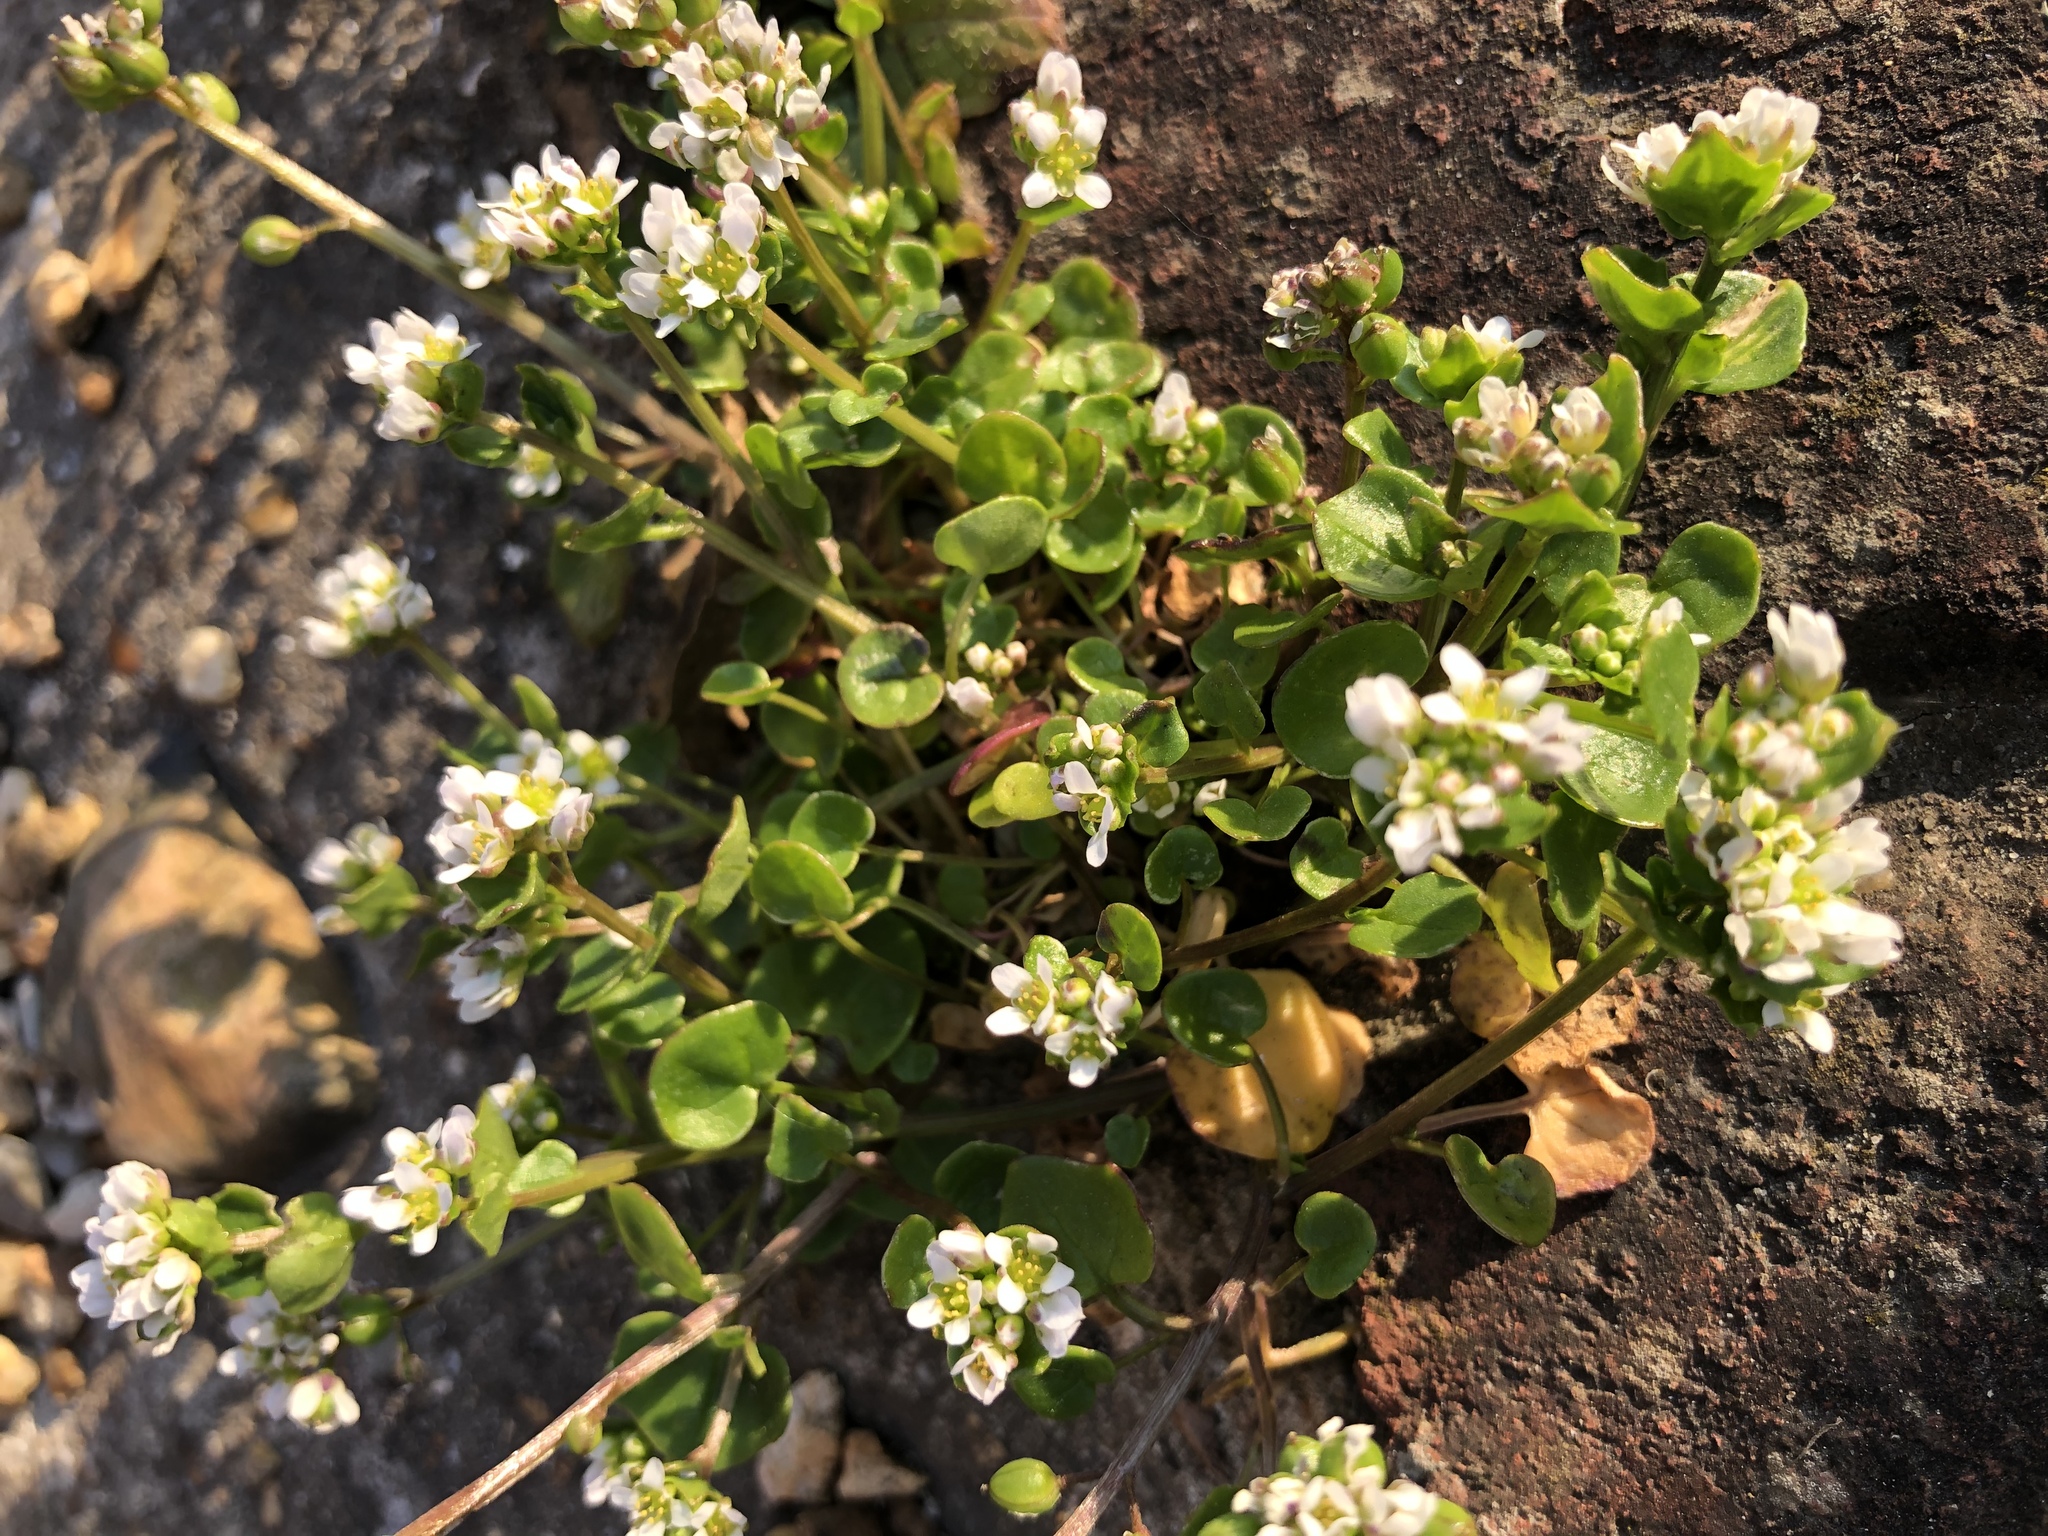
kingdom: Plantae
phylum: Tracheophyta
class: Magnoliopsida
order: Brassicales
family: Brassicaceae
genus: Cochlearia
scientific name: Cochlearia danica
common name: Early scurvygrass
